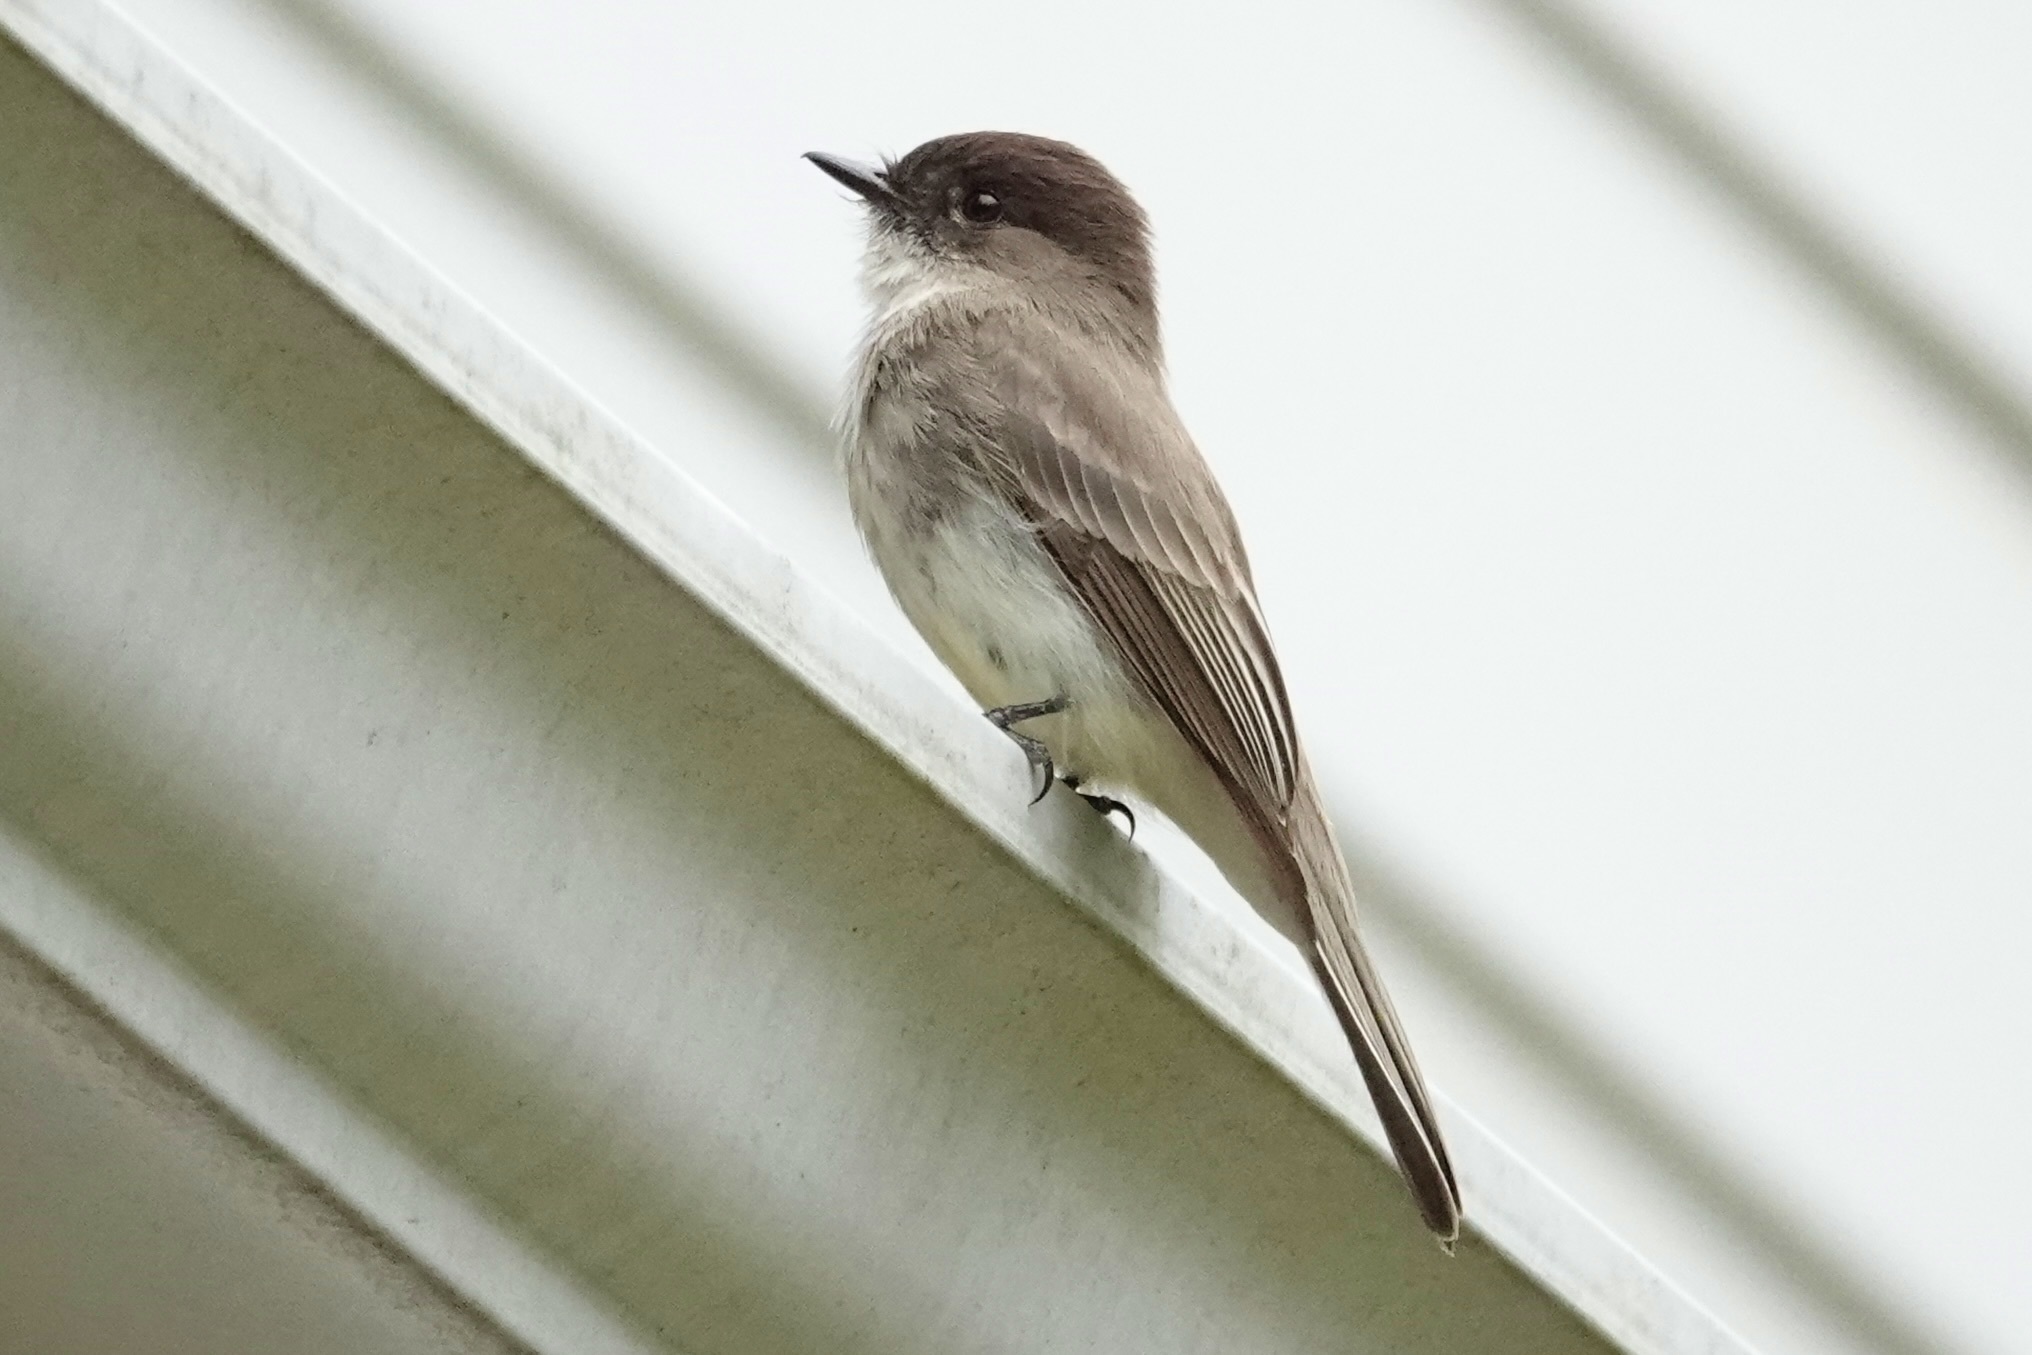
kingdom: Animalia
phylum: Chordata
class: Aves
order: Passeriformes
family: Tyrannidae
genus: Sayornis
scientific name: Sayornis phoebe
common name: Eastern phoebe
